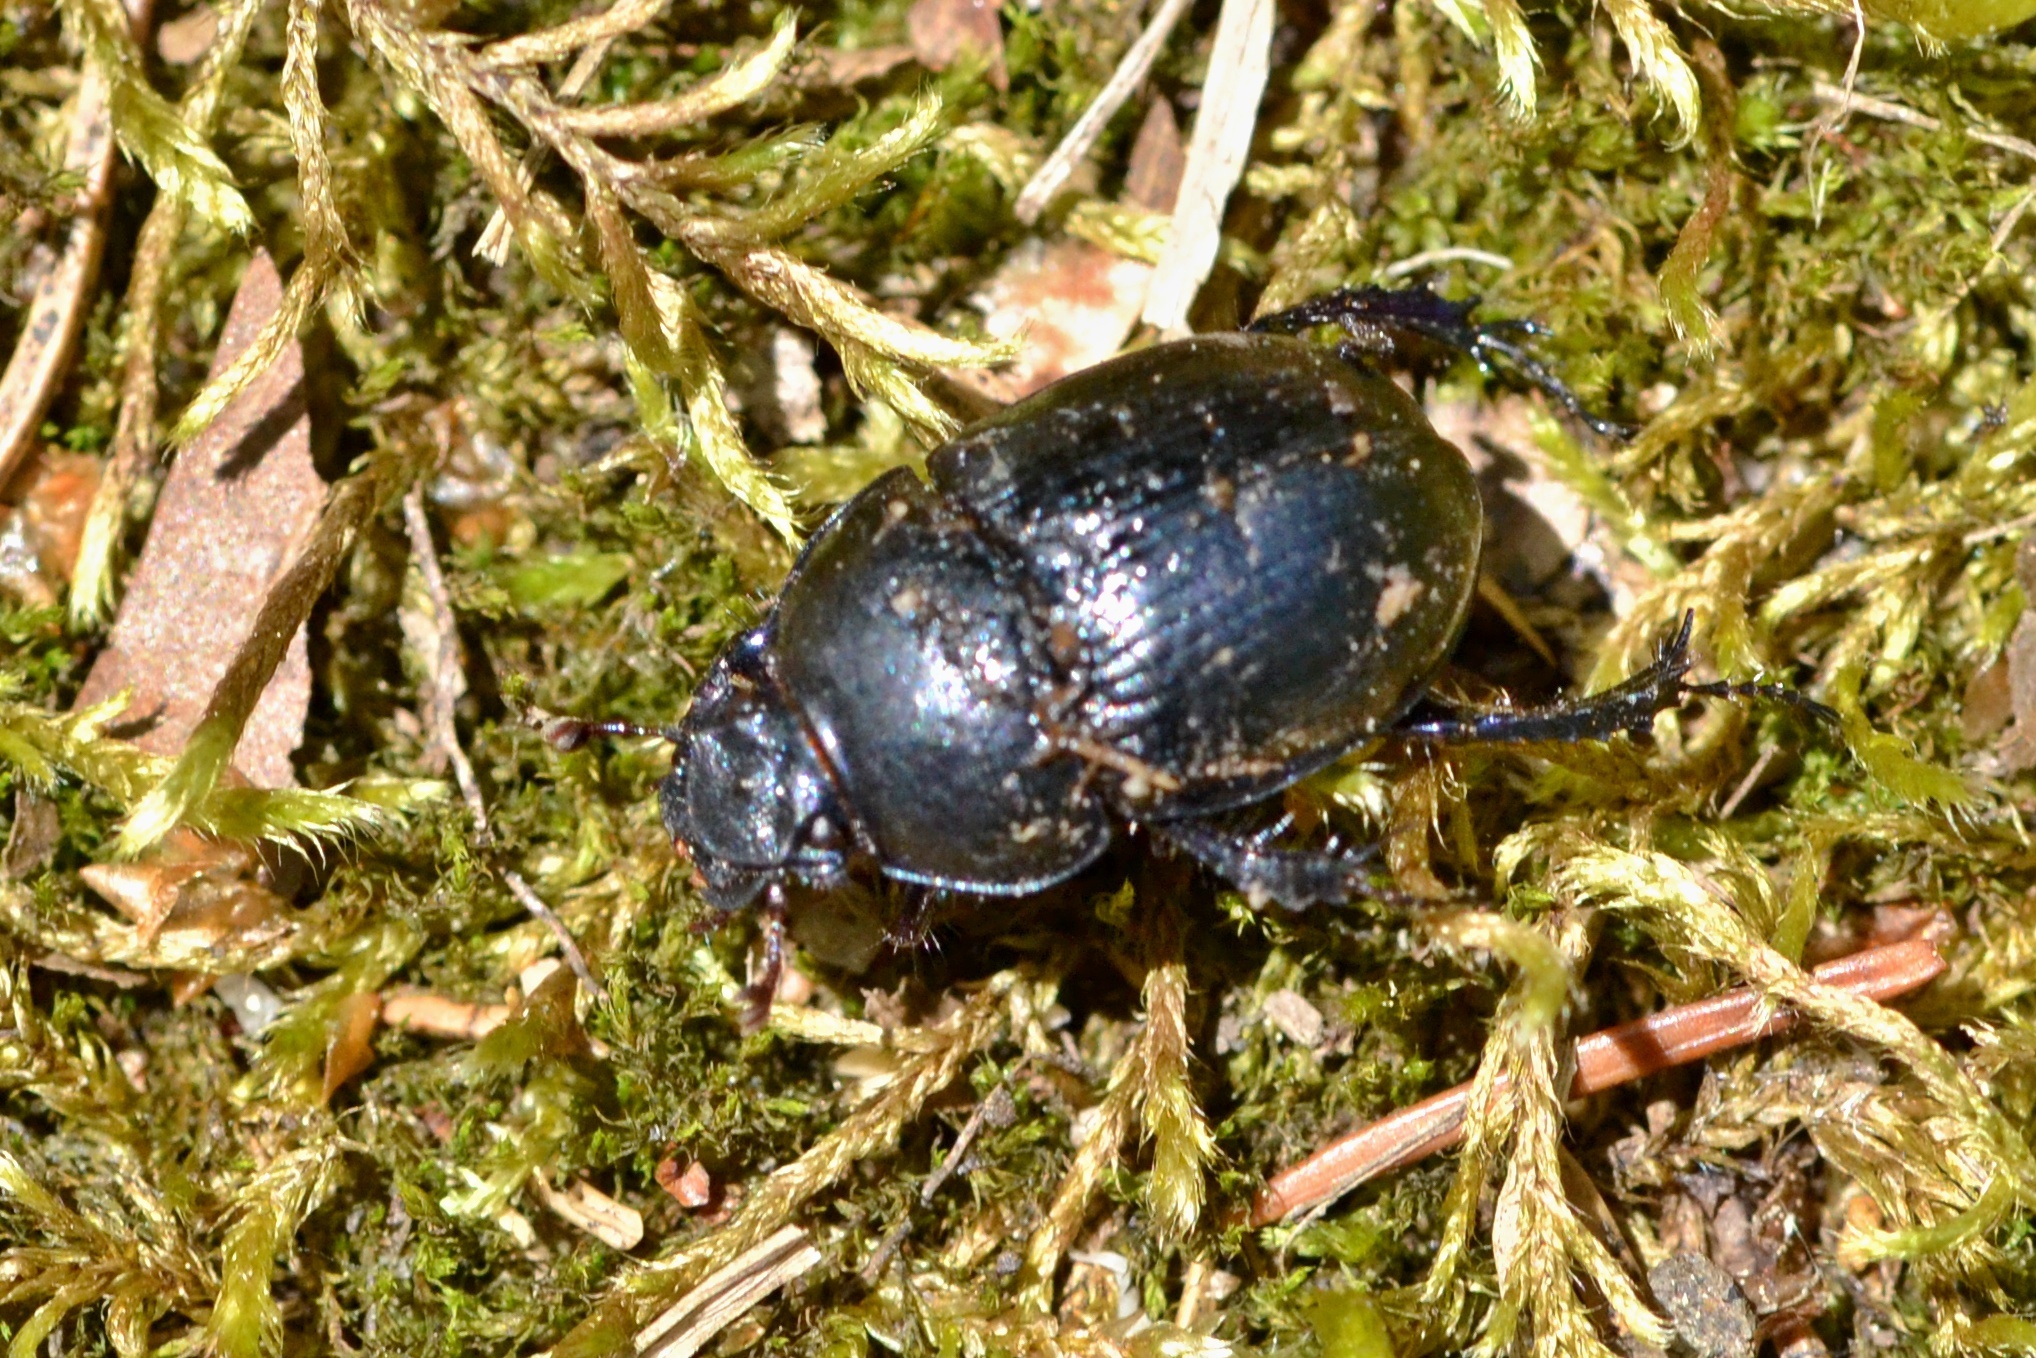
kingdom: Animalia
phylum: Arthropoda
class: Insecta
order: Coleoptera
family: Geotrupidae
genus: Anoplotrupes
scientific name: Anoplotrupes stercorosus
